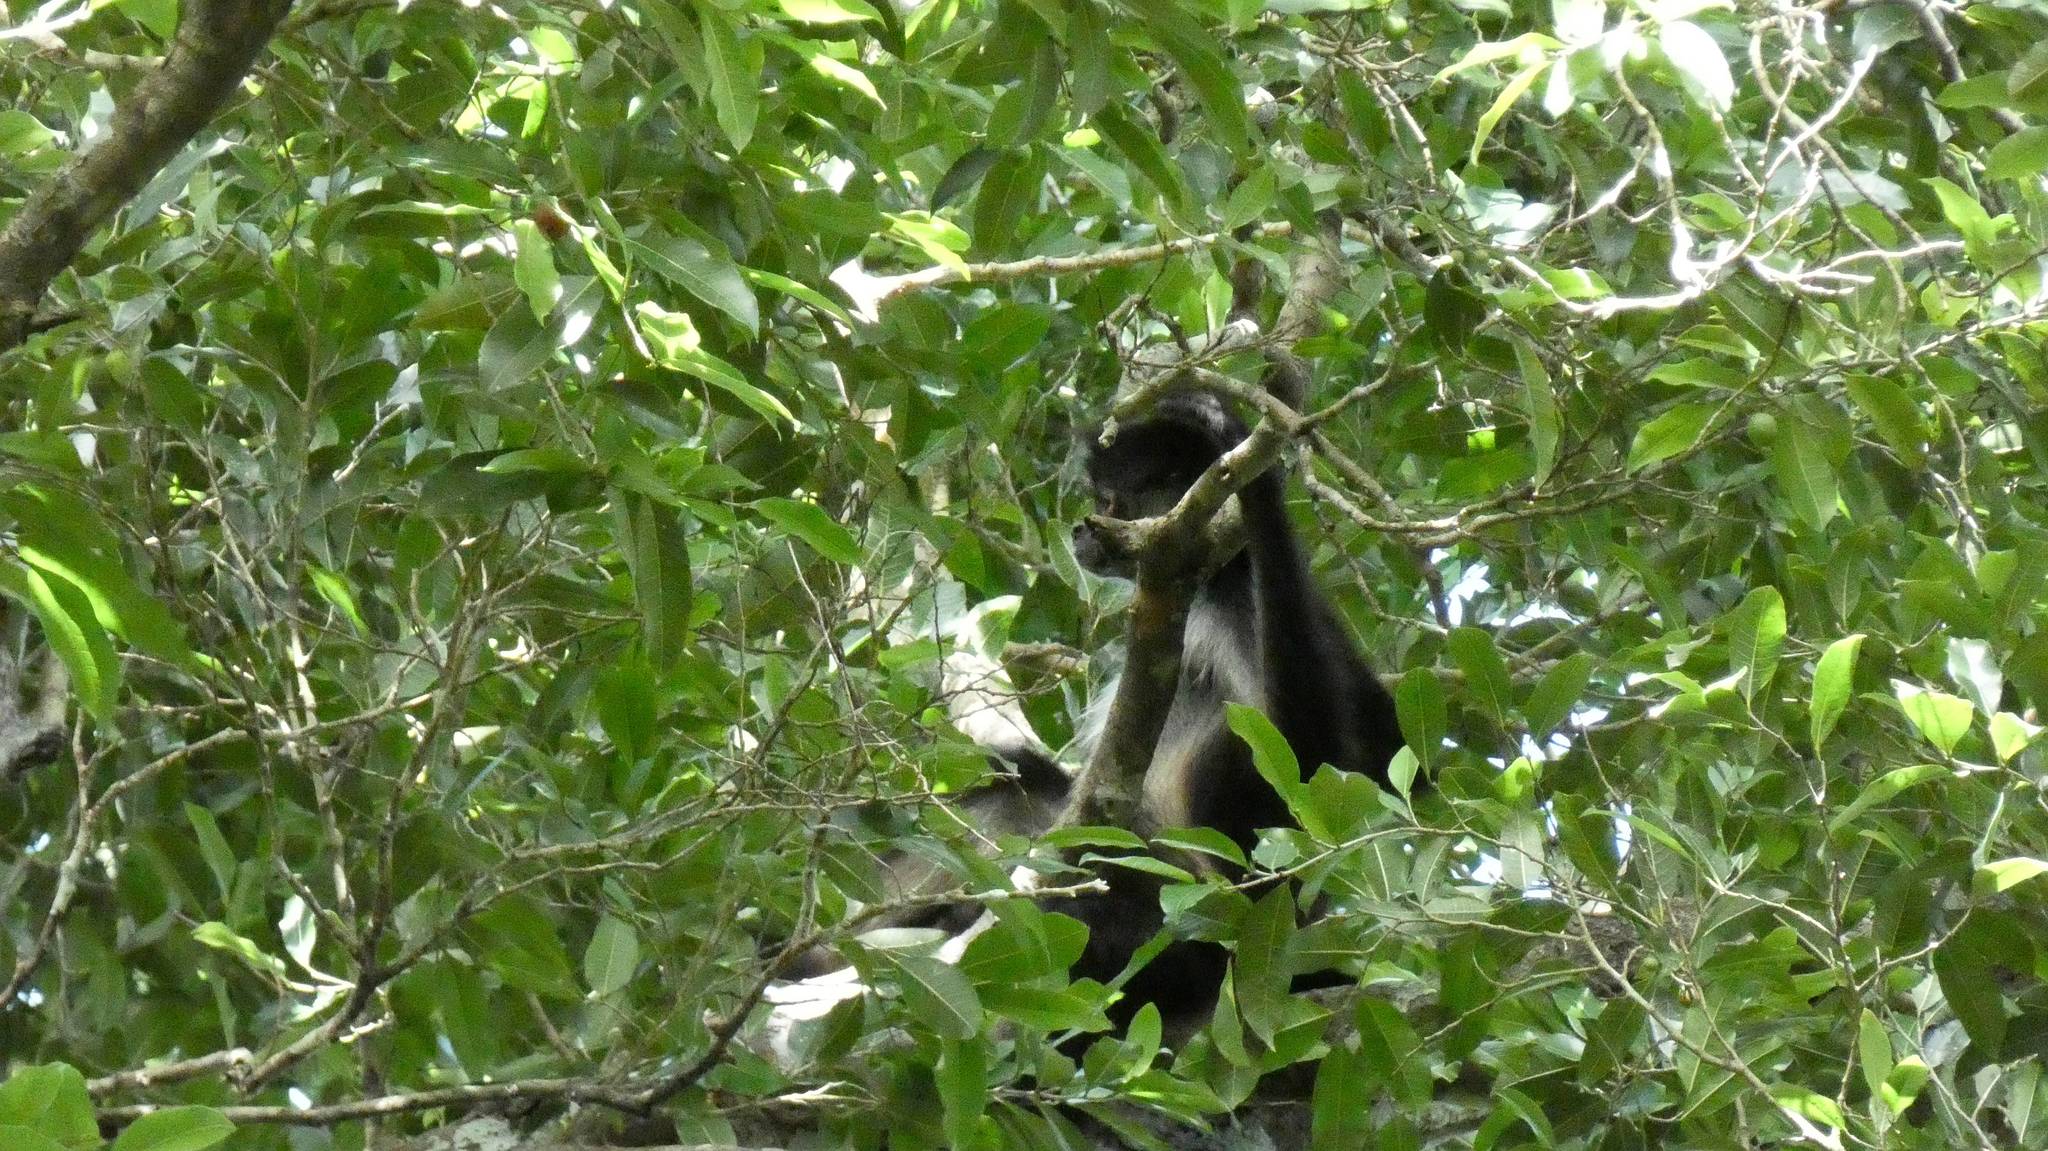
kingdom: Animalia
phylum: Chordata
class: Mammalia
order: Primates
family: Atelidae
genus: Ateles
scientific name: Ateles geoffroyi
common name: Black-handed spider monkey
